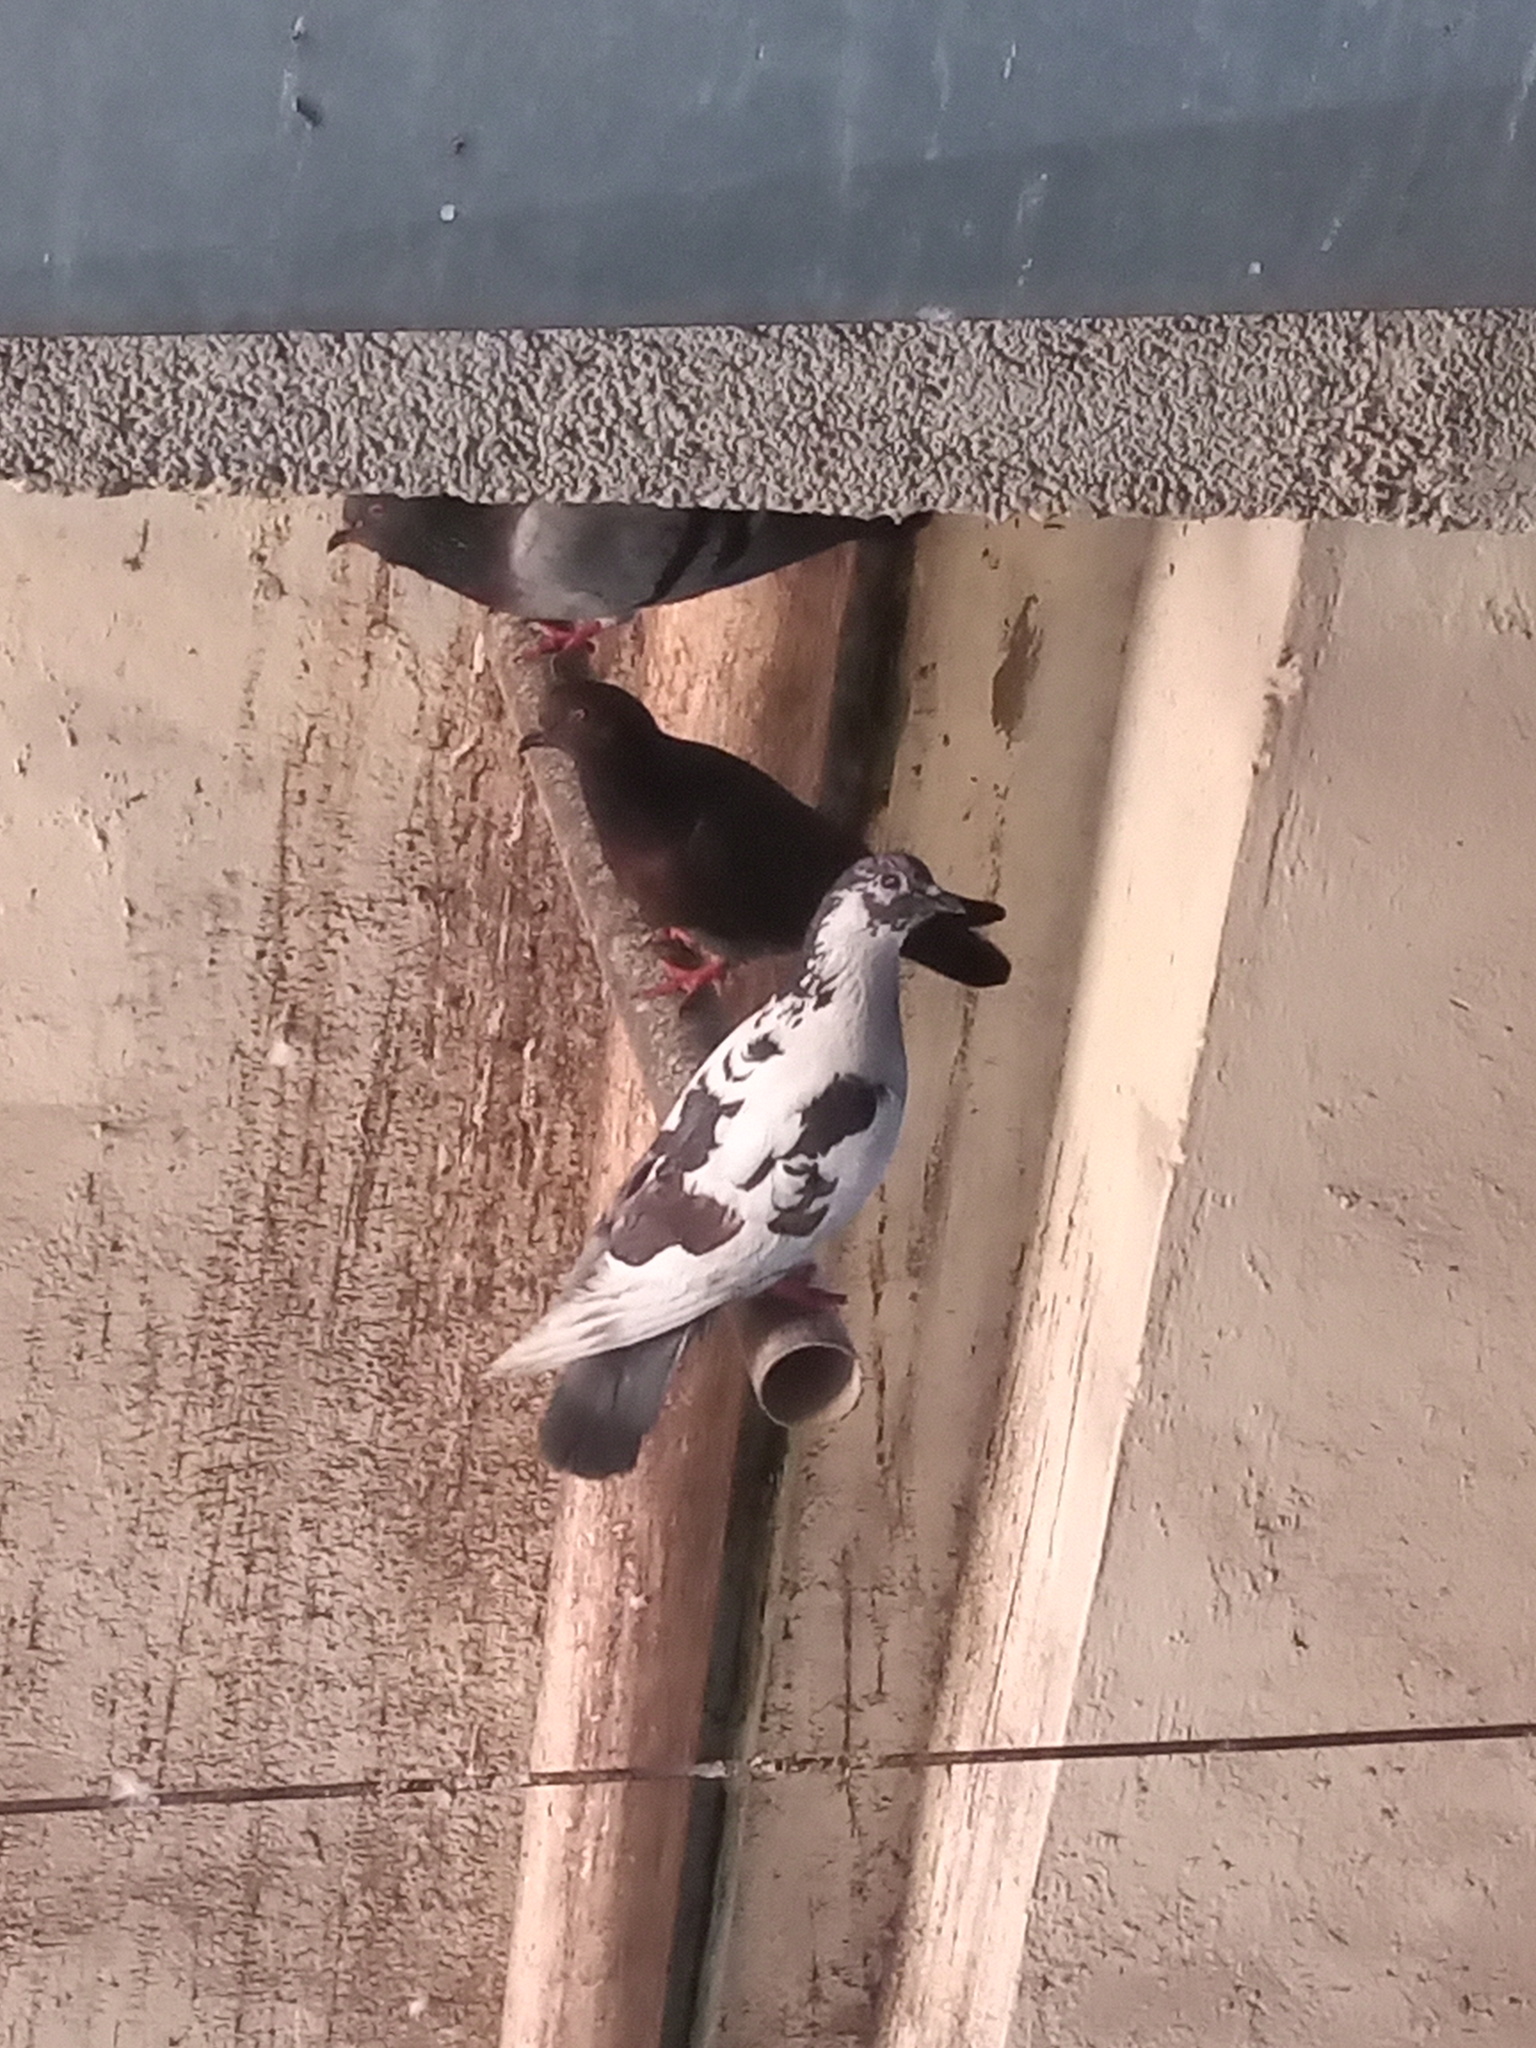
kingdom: Animalia
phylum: Chordata
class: Aves
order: Columbiformes
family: Columbidae
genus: Columba
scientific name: Columba livia
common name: Rock pigeon
